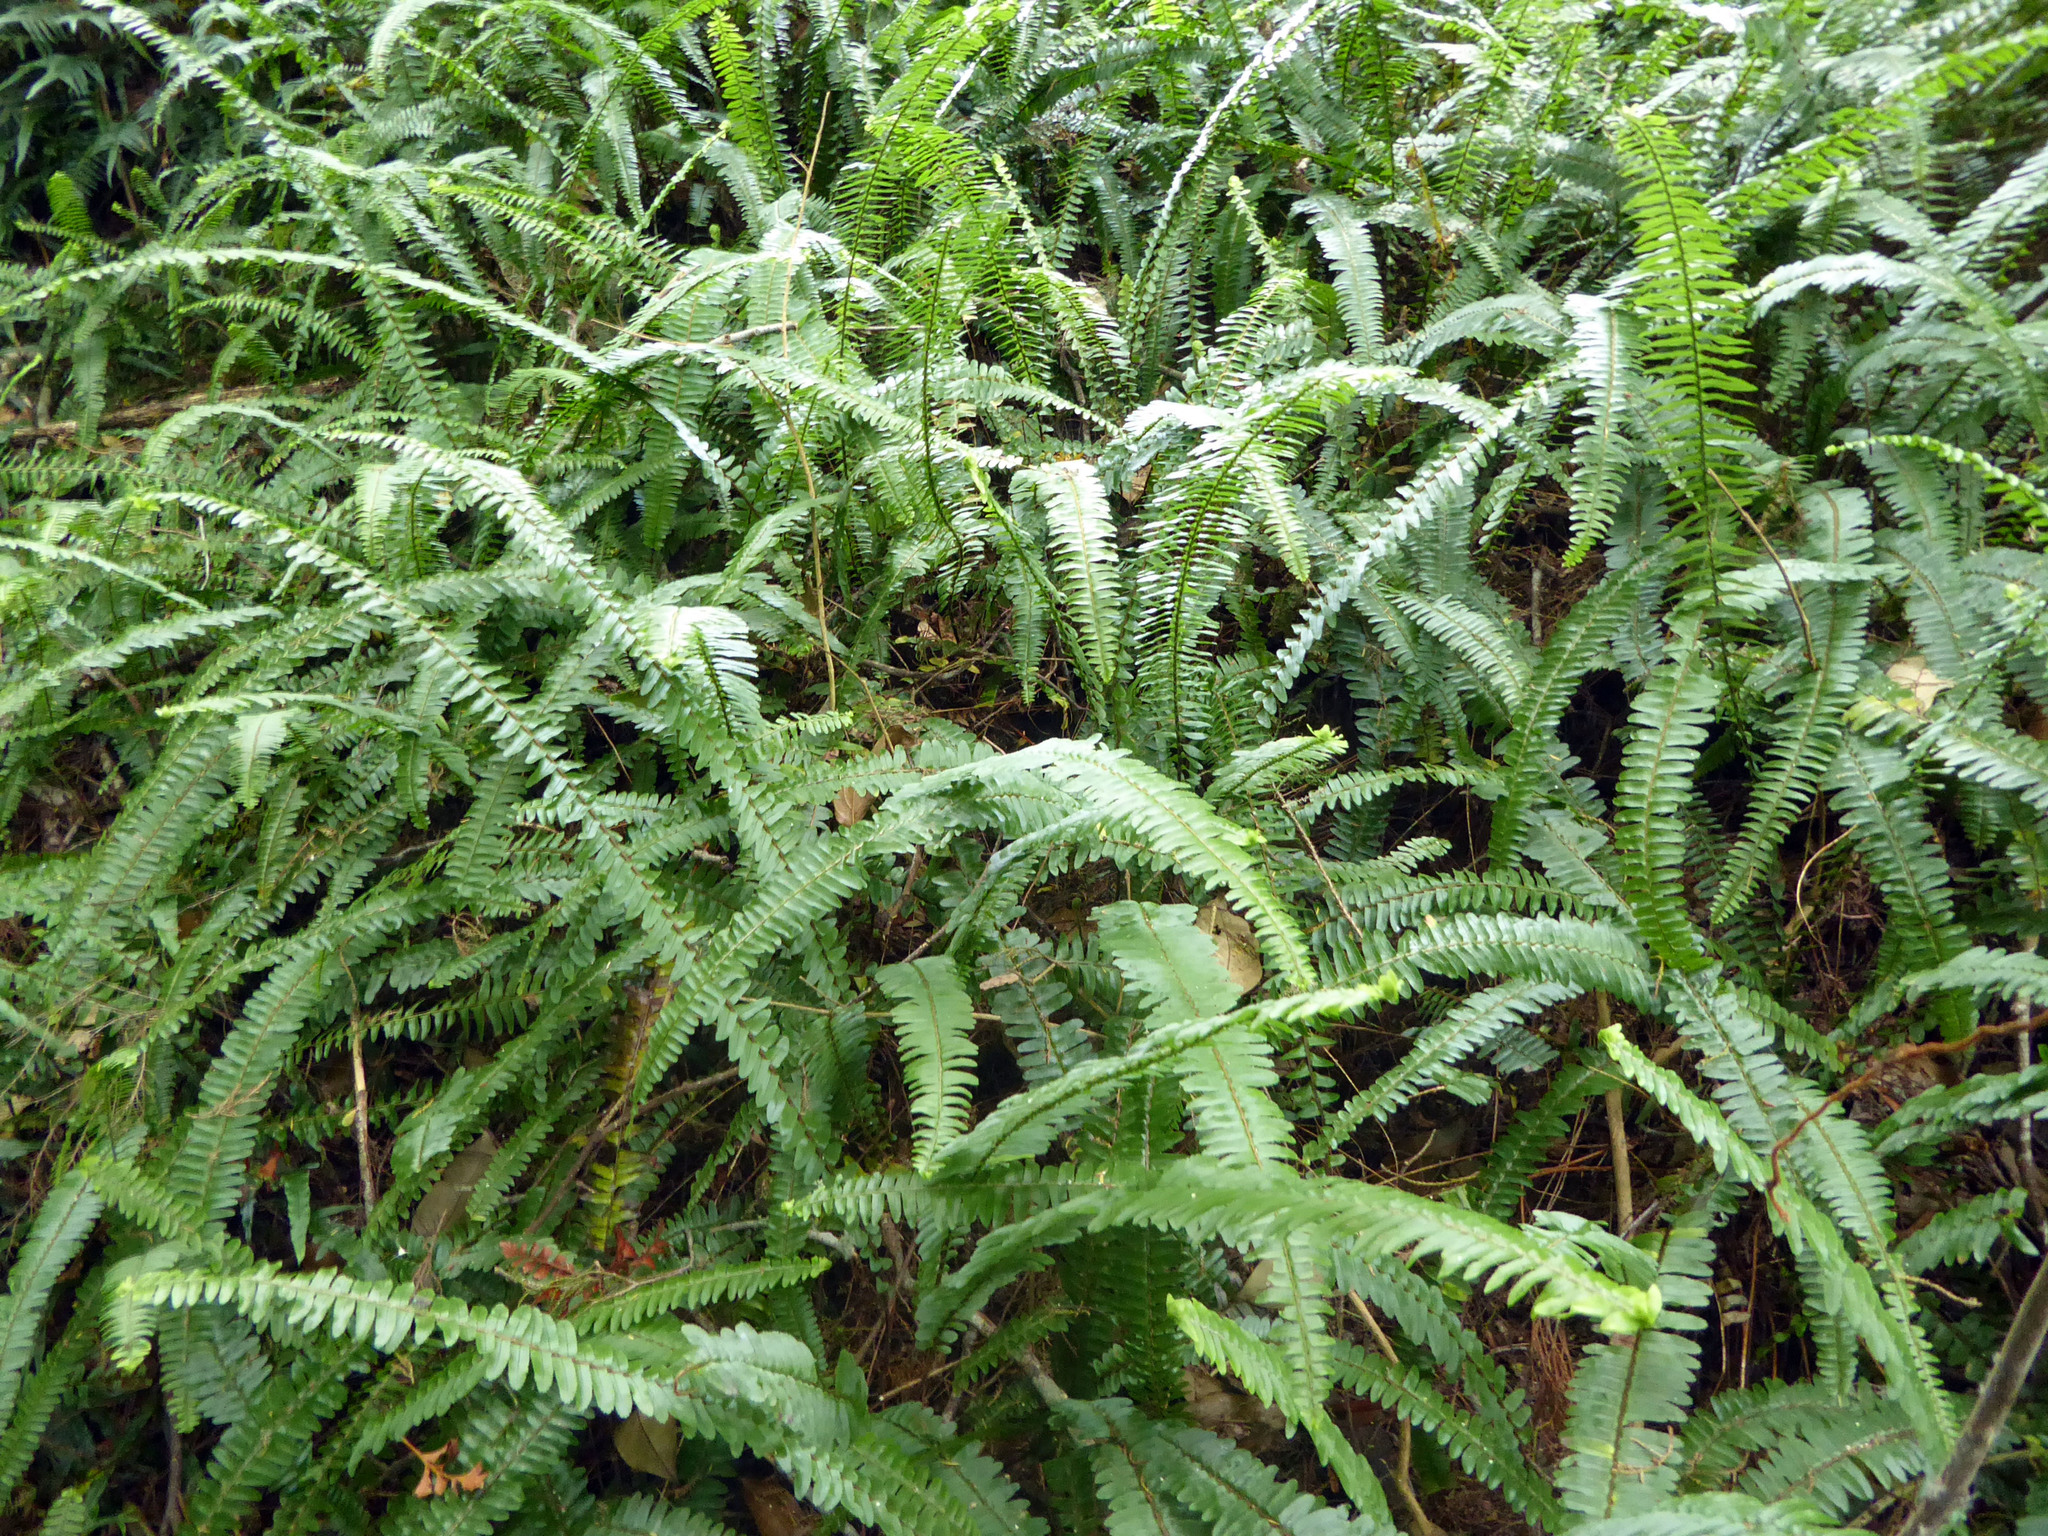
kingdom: Plantae
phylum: Tracheophyta
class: Polypodiopsida
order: Polypodiales
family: Nephrolepidaceae
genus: Nephrolepis
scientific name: Nephrolepis cordifolia
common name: Narrow swordfern
